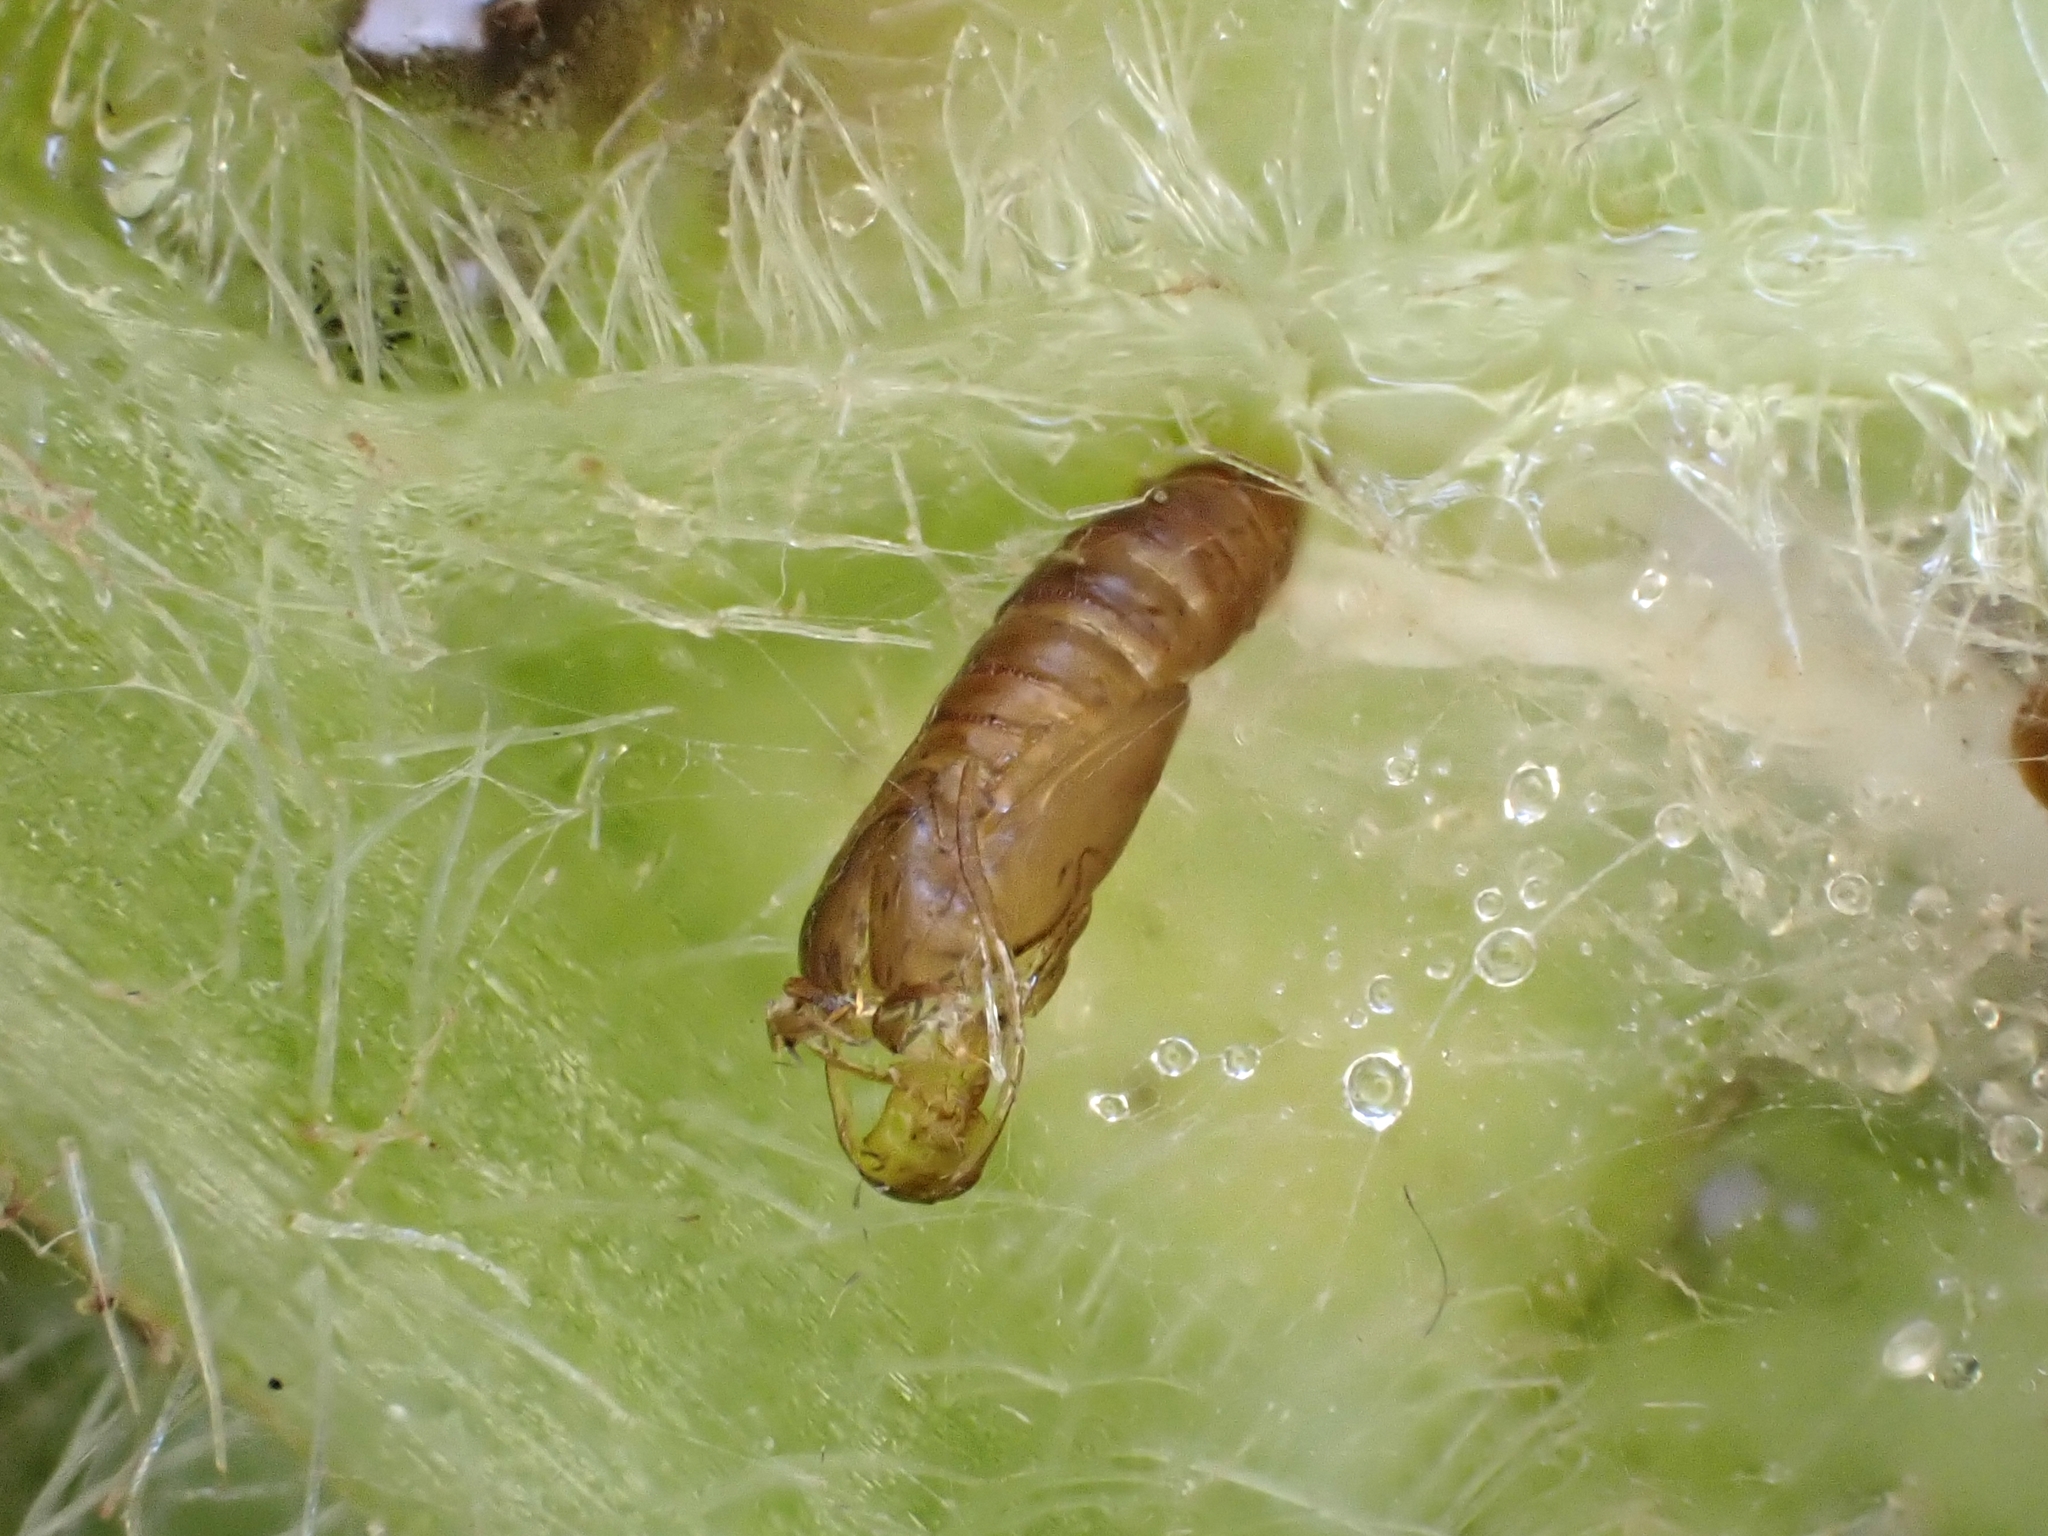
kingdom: Animalia
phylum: Arthropoda
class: Insecta
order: Lepidoptera
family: Choreutidae
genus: Tebenna
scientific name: Tebenna micalis
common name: Vagrant twitcher
